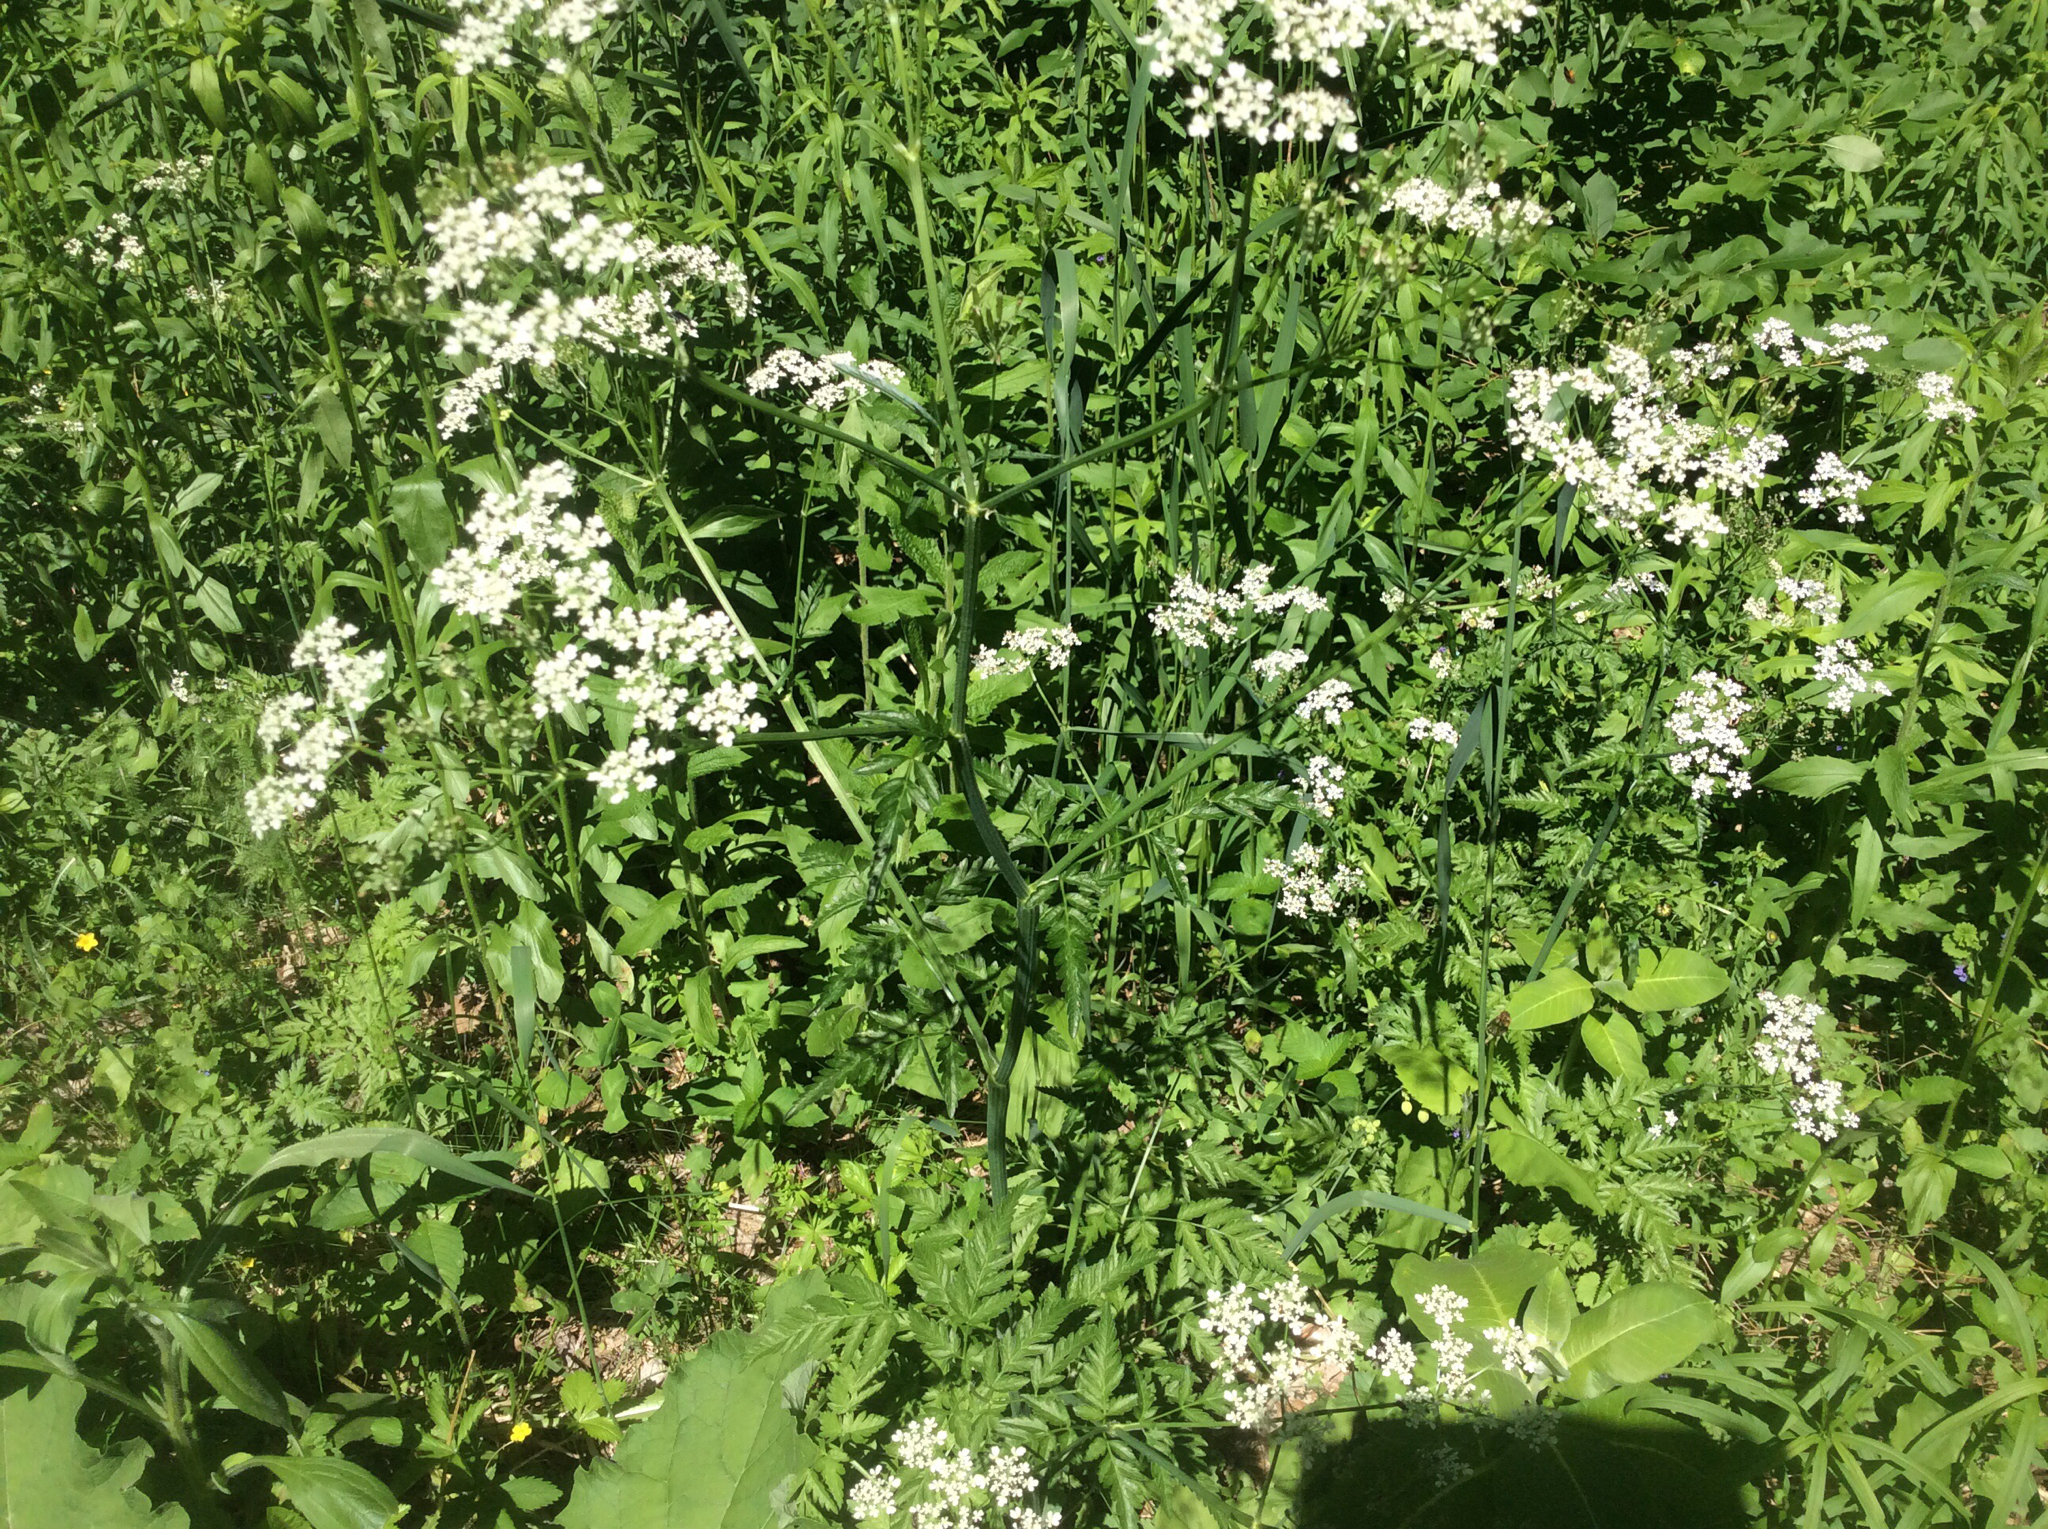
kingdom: Plantae
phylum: Tracheophyta
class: Magnoliopsida
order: Apiales
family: Apiaceae
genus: Anthriscus
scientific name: Anthriscus sylvestris
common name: Cow parsley
